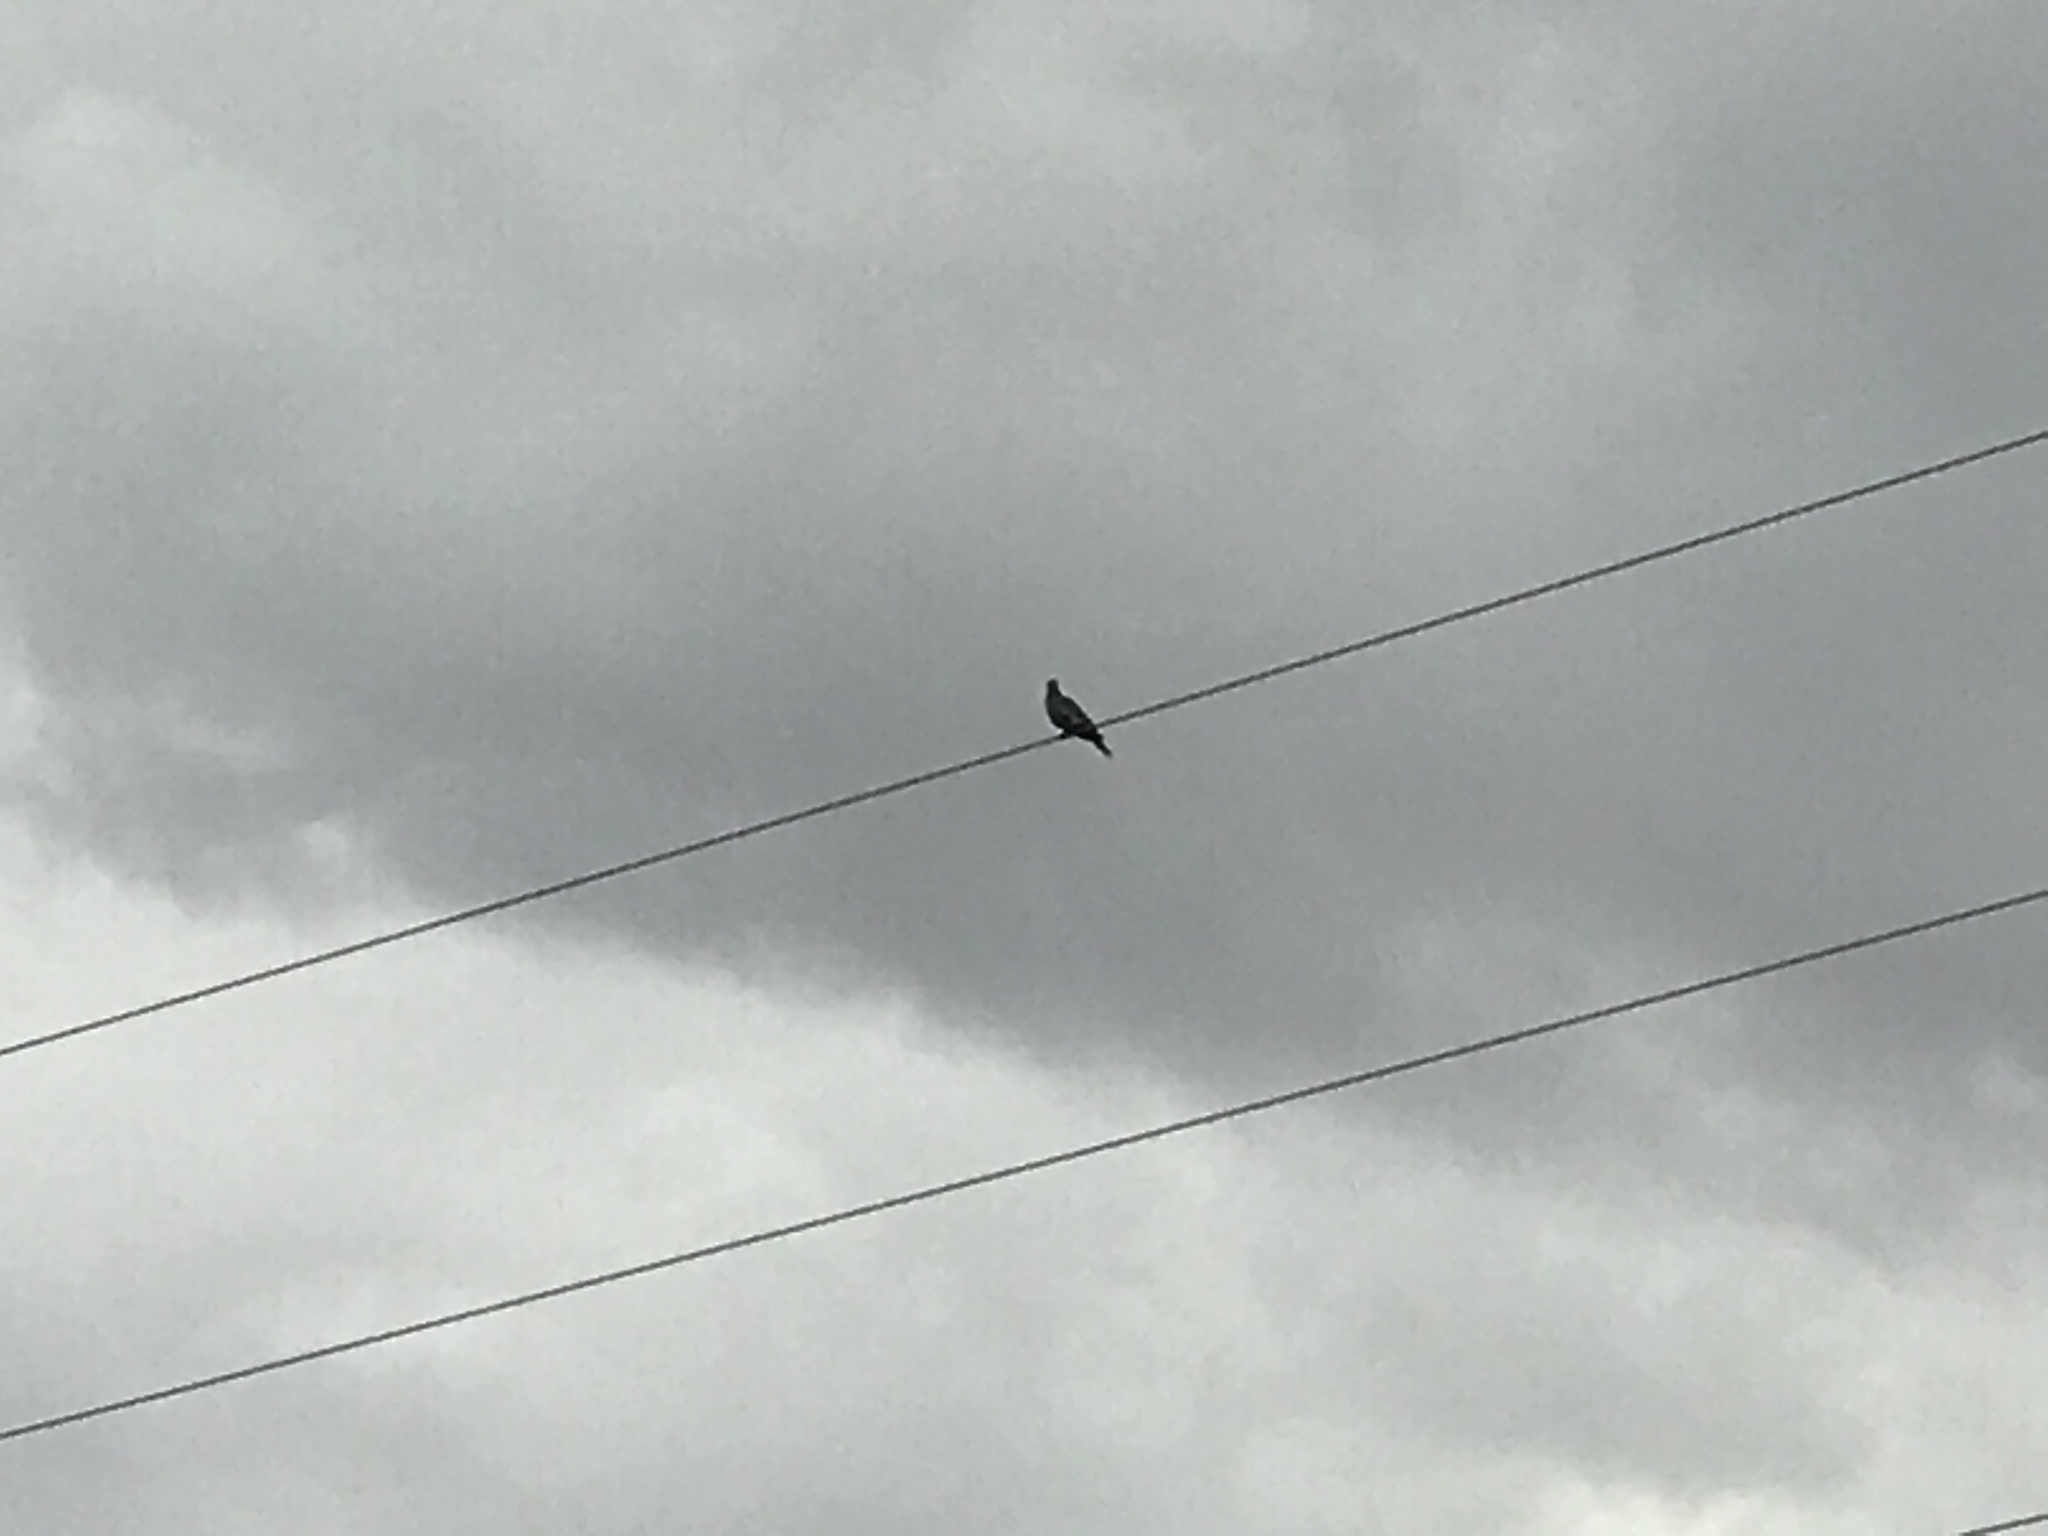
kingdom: Animalia
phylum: Chordata
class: Aves
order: Columbiformes
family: Columbidae
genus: Zenaida
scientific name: Zenaida asiatica
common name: White-winged dove
